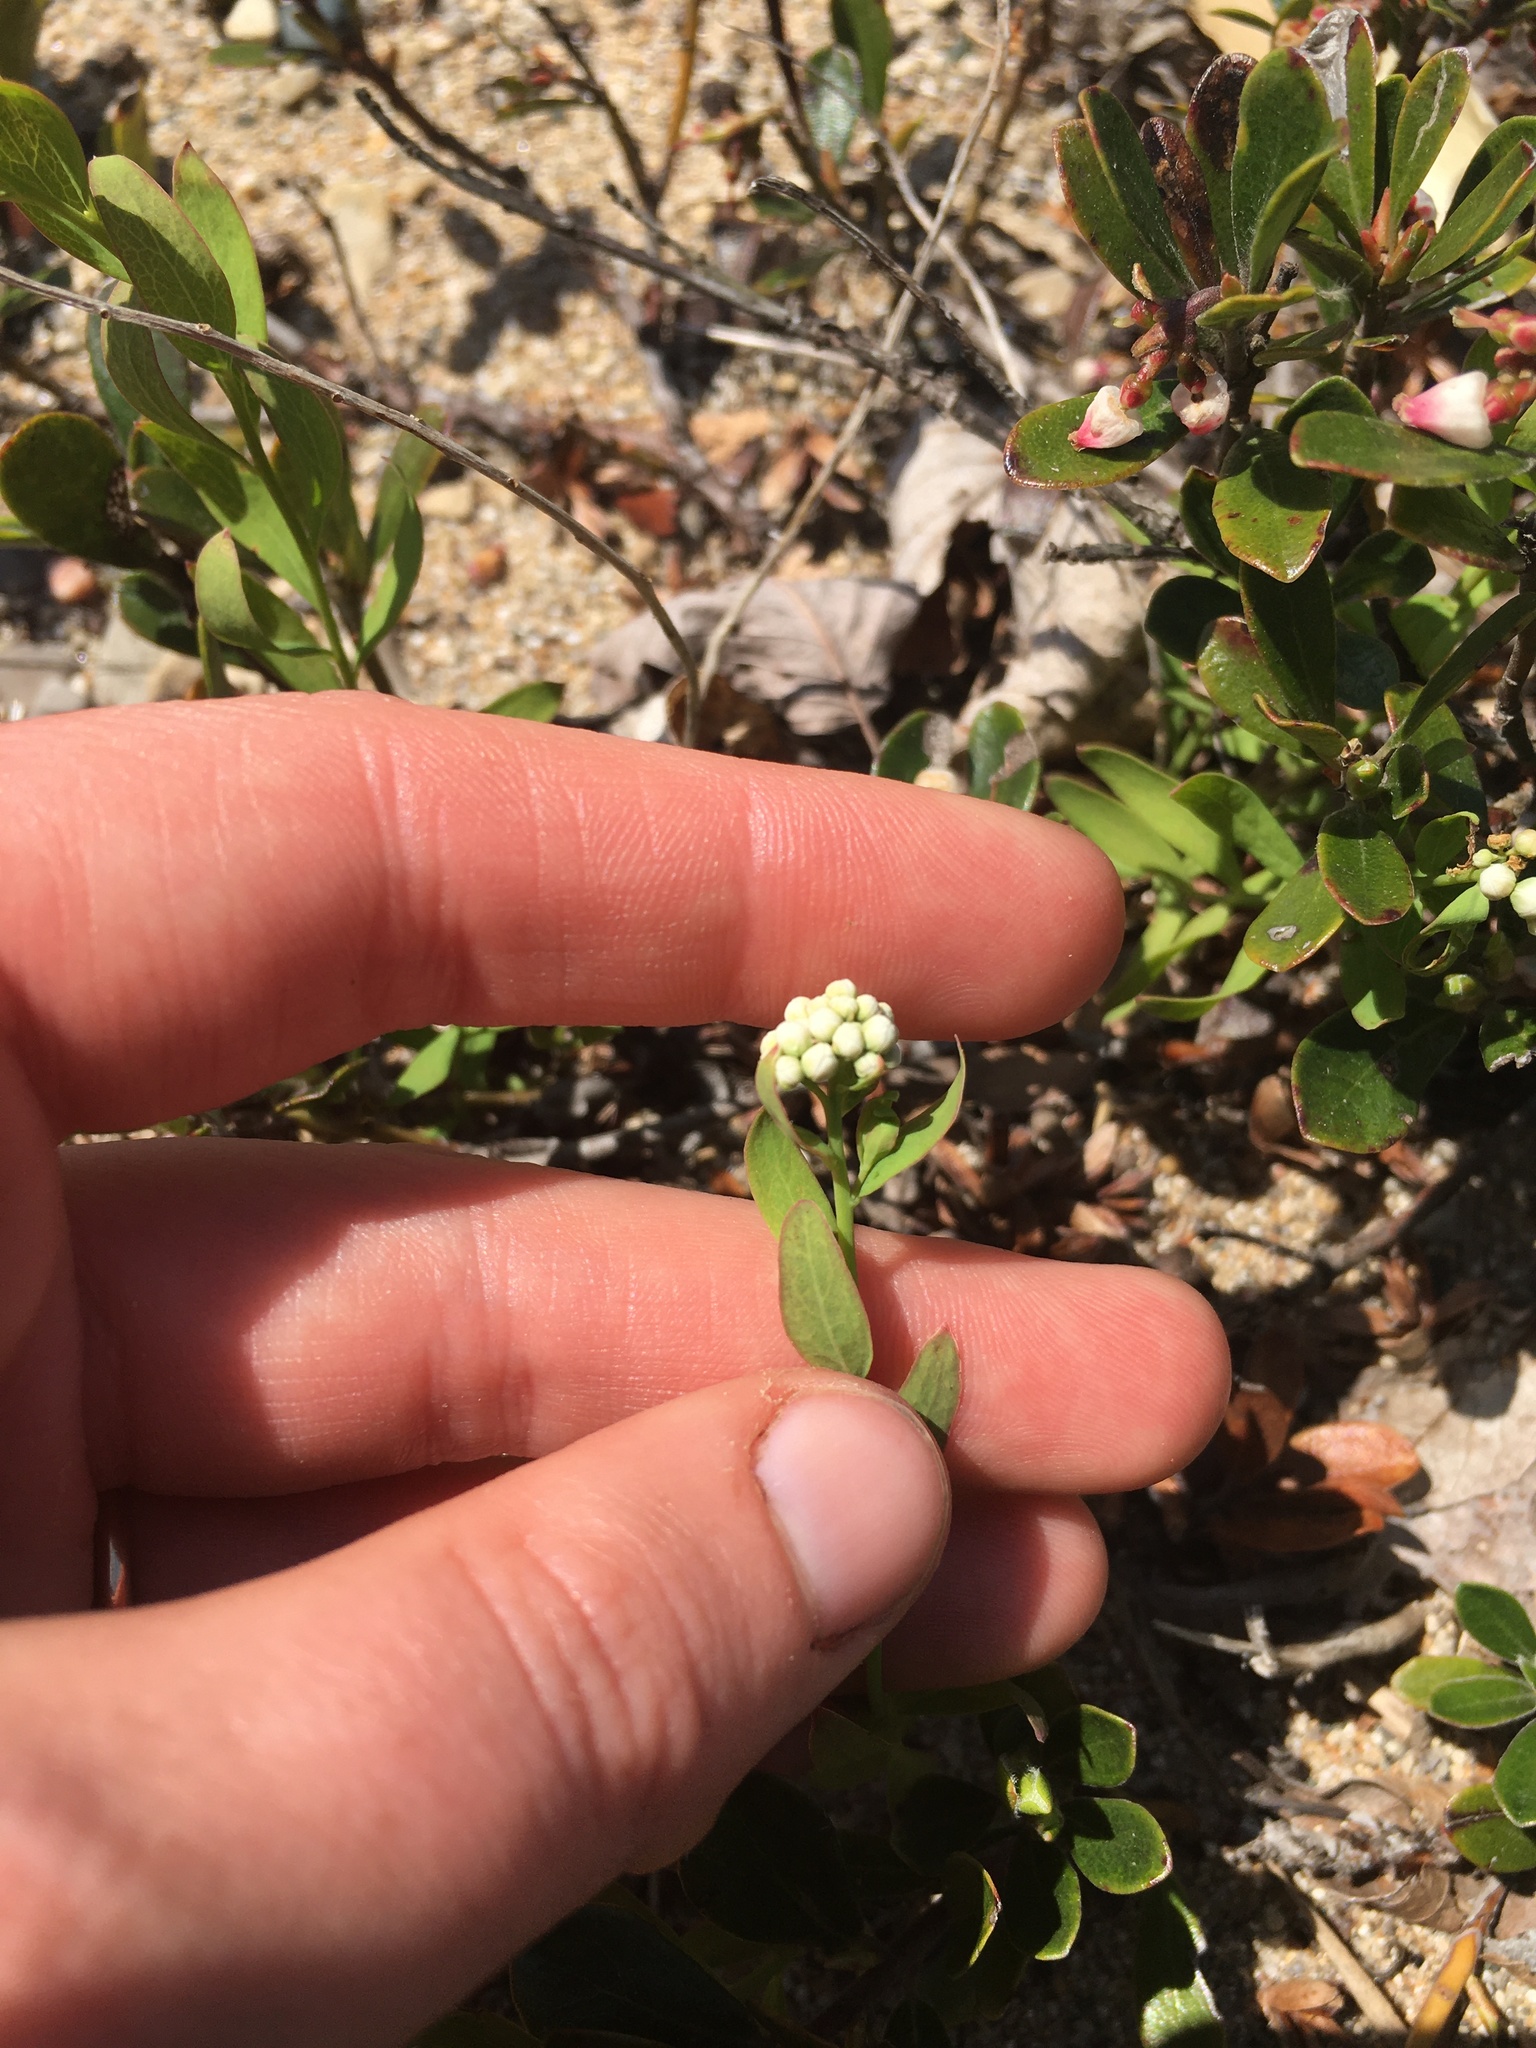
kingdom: Plantae
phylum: Tracheophyta
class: Magnoliopsida
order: Santalales
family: Comandraceae
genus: Comandra
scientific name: Comandra umbellata
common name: Bastard toadflax
